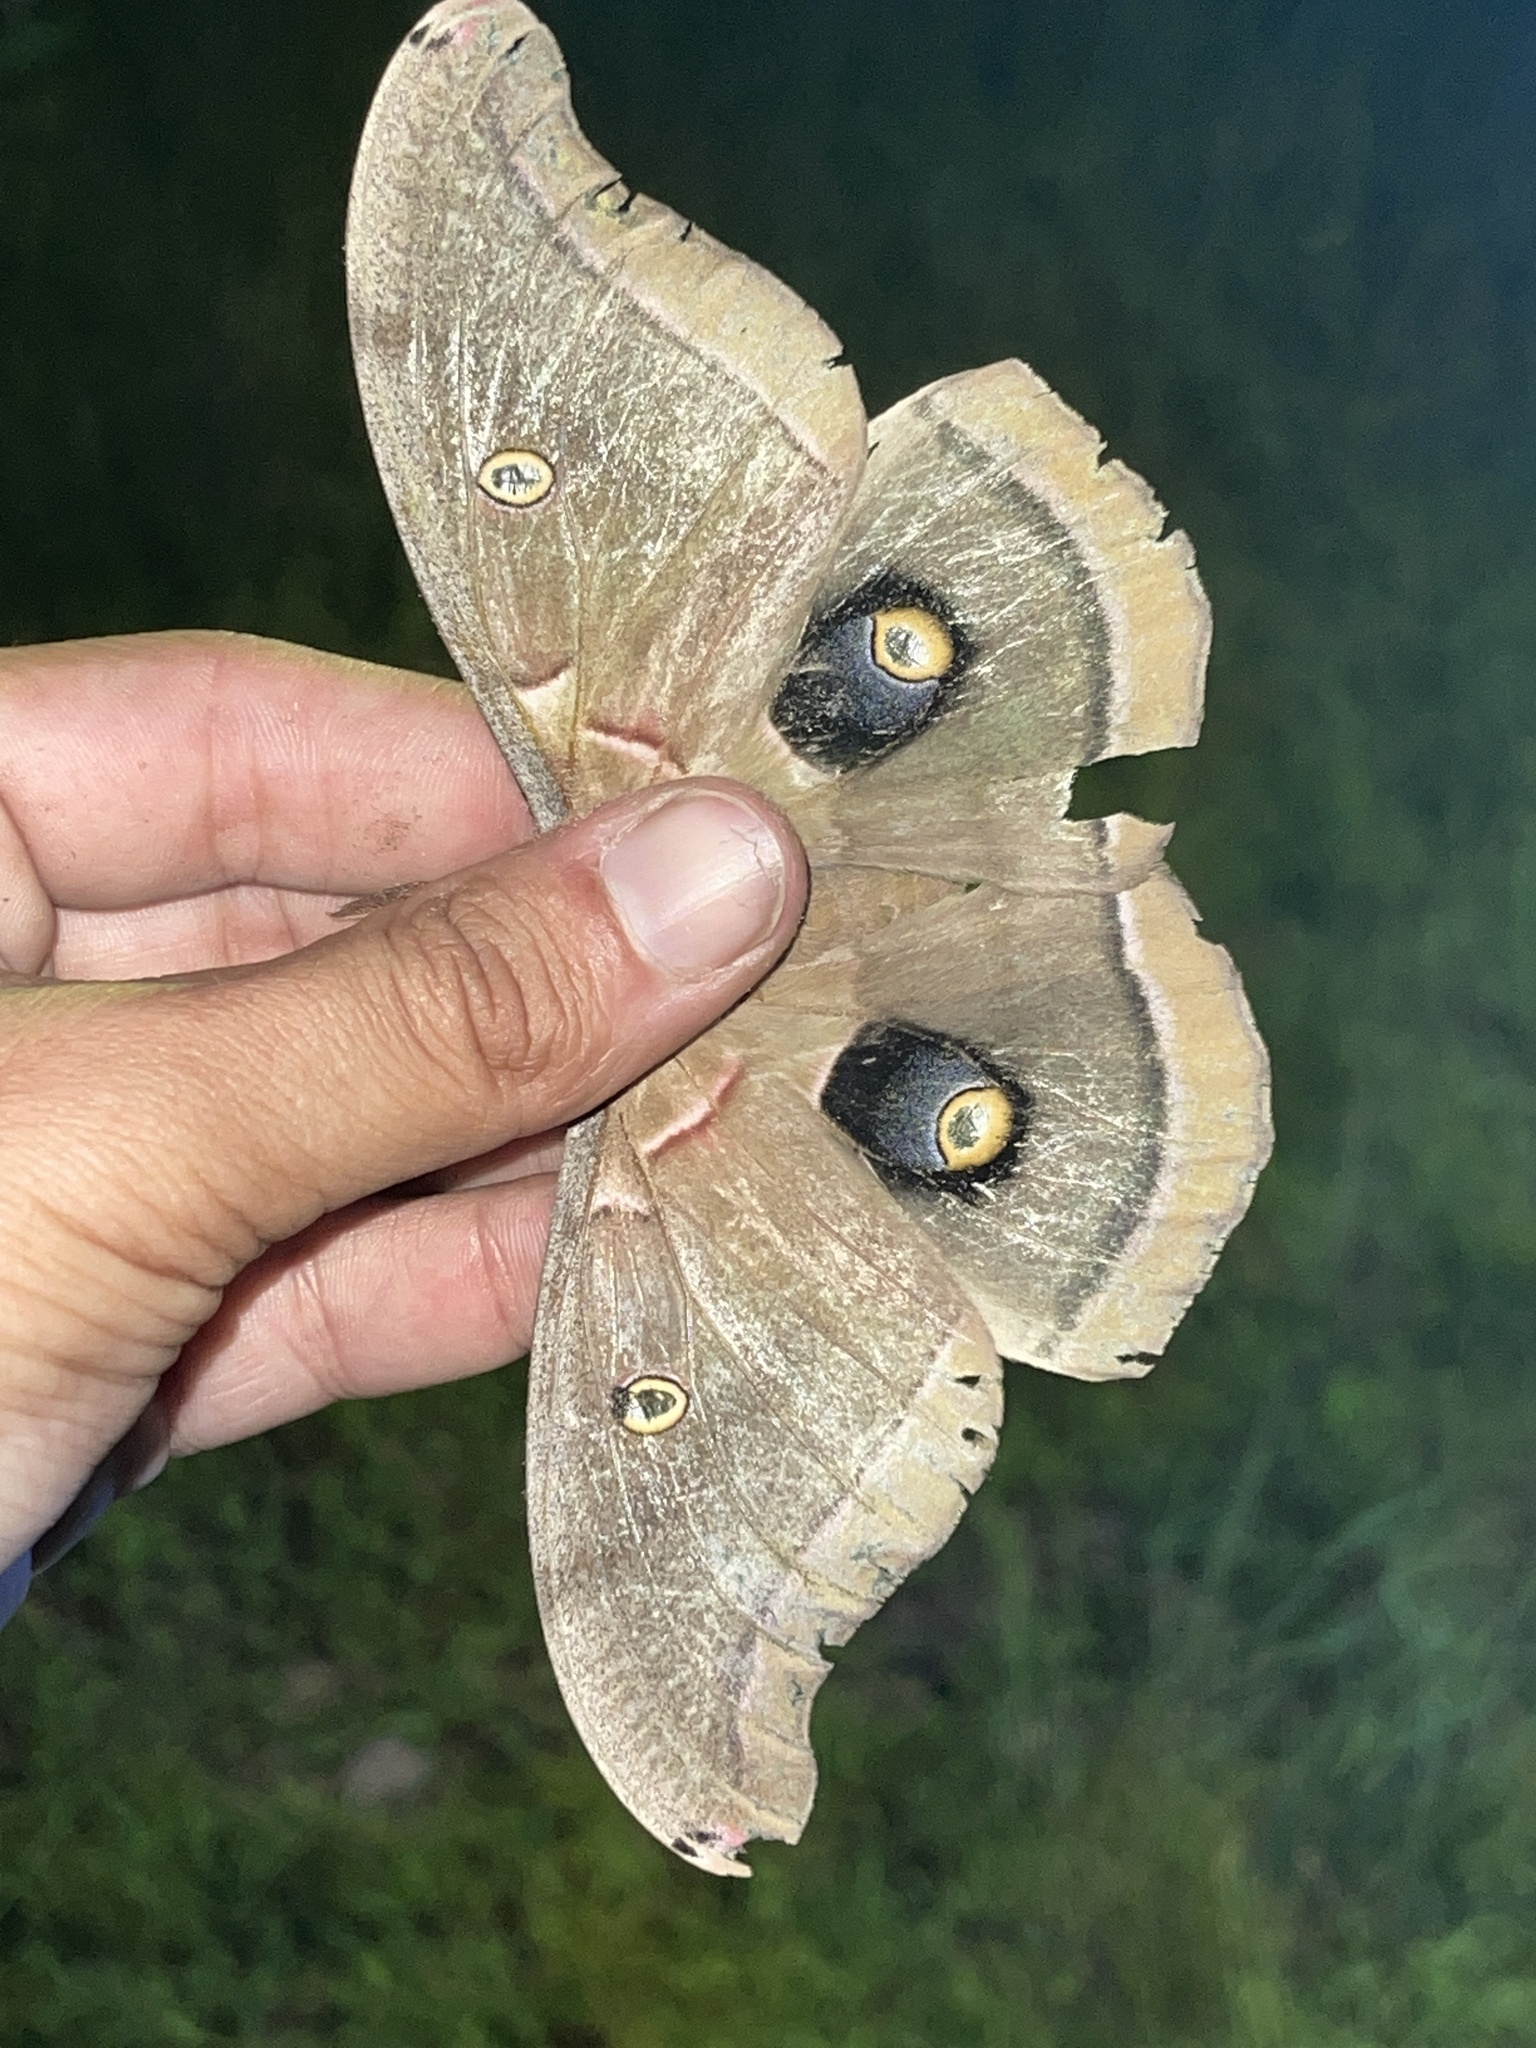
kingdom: Animalia
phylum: Arthropoda
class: Insecta
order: Lepidoptera
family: Saturniidae
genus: Antheraea
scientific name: Antheraea polyphemus
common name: Polyphemus moth
